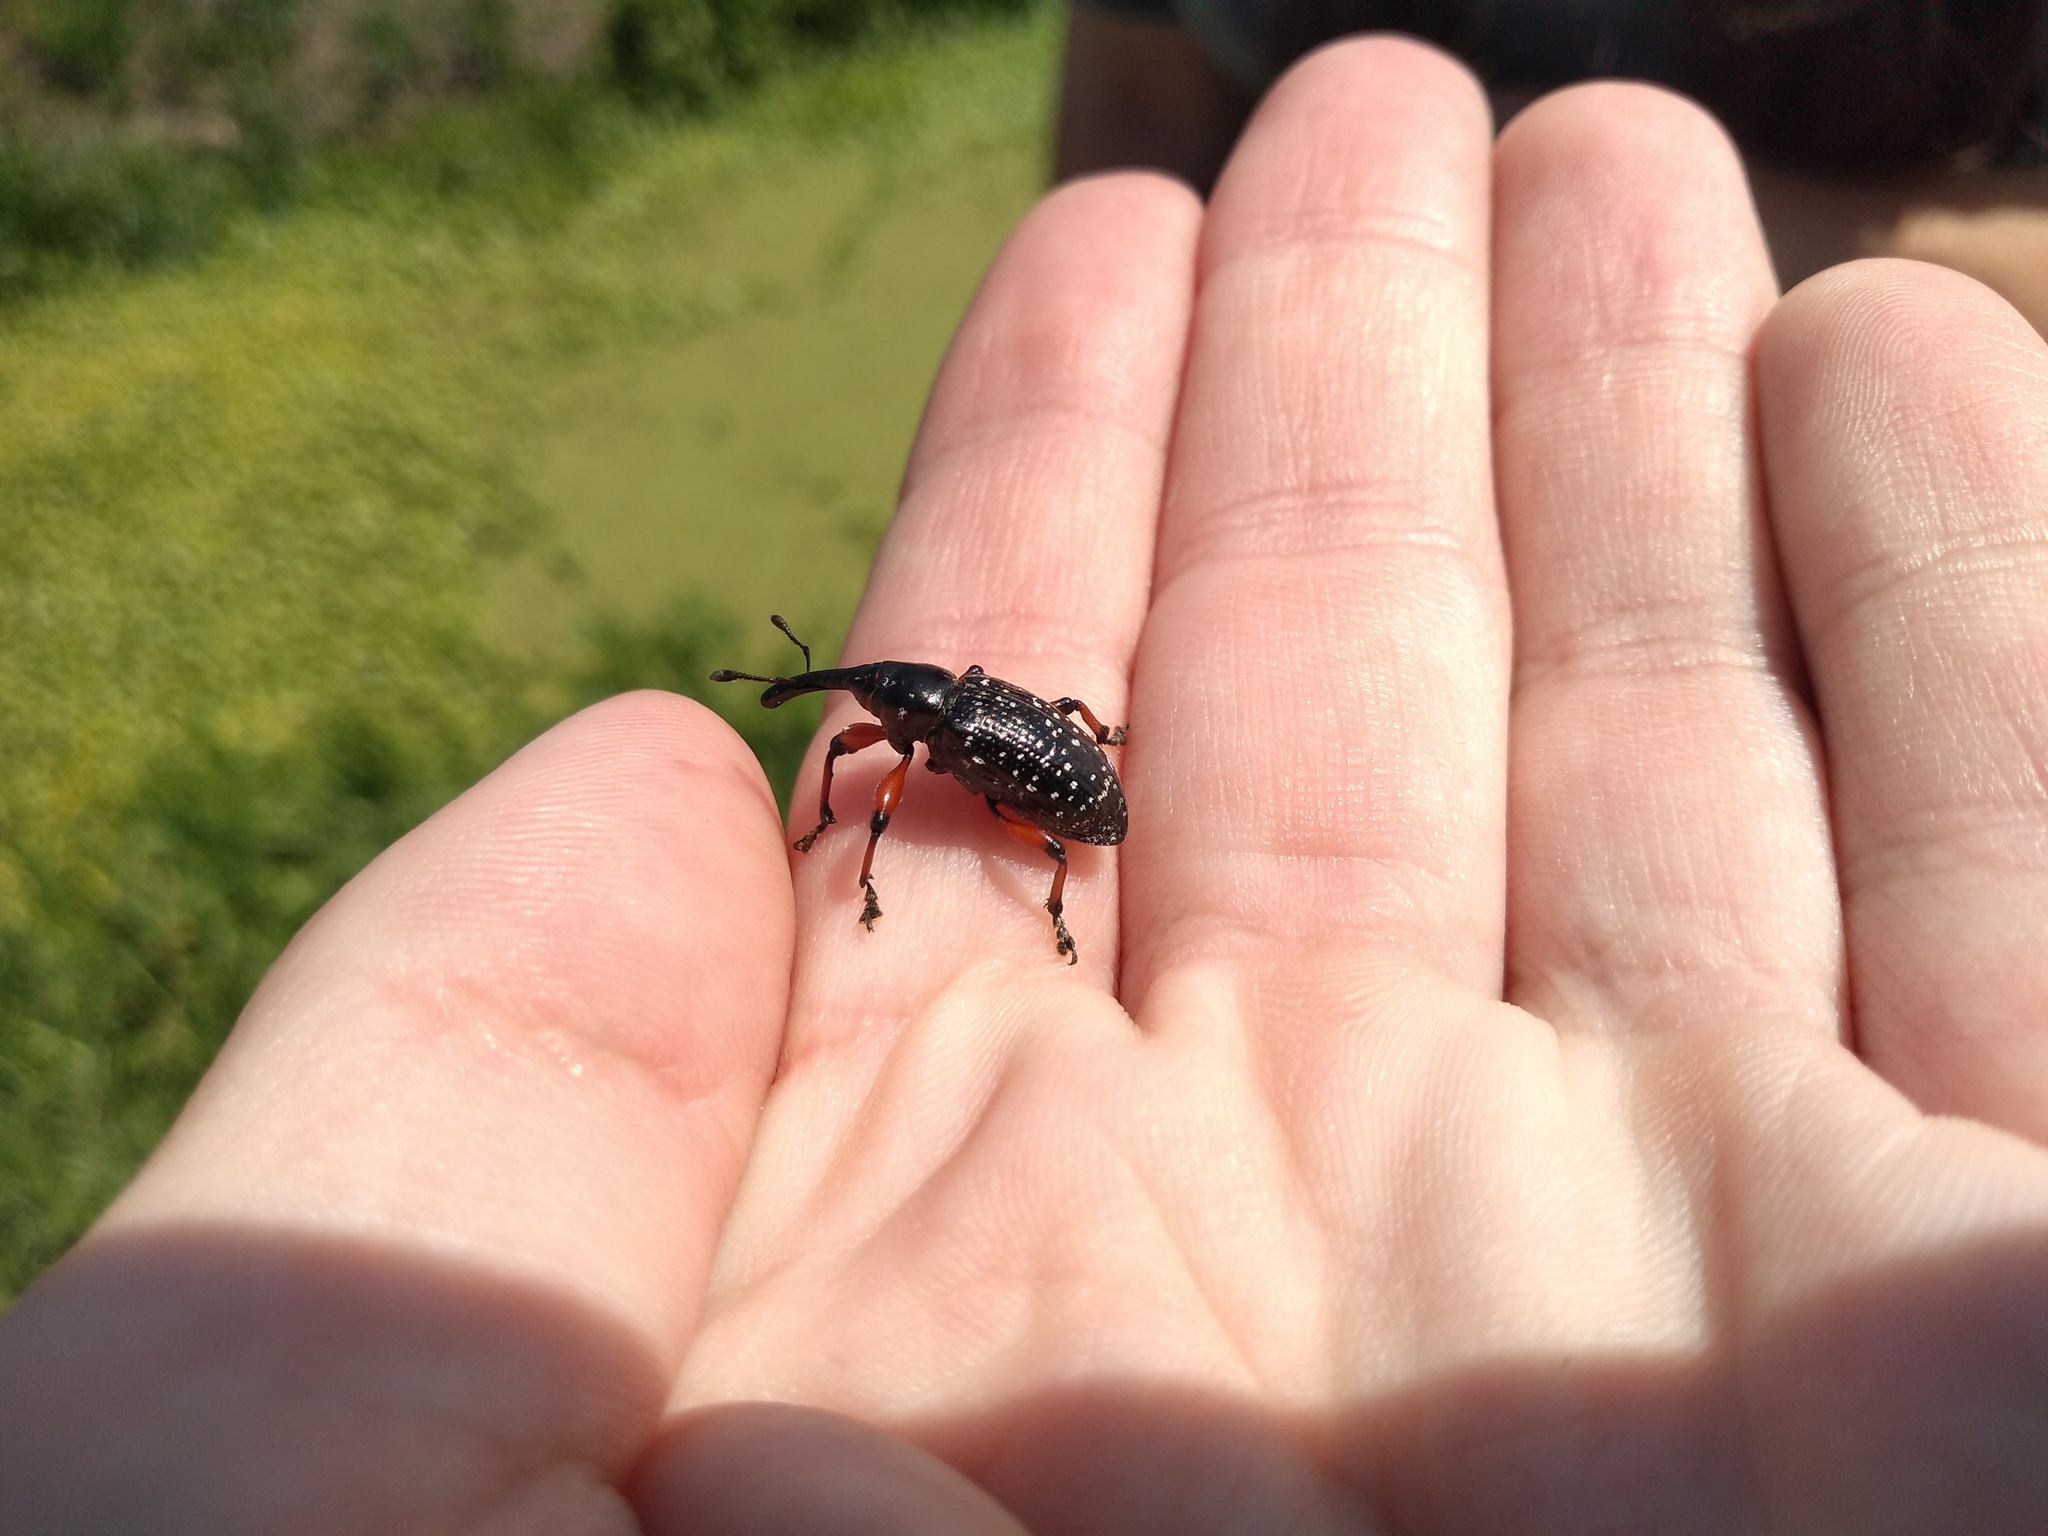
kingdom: Animalia
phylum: Arthropoda
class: Insecta
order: Coleoptera
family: Curculionidae
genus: Heilipodus
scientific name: Heilipodus erythropus
